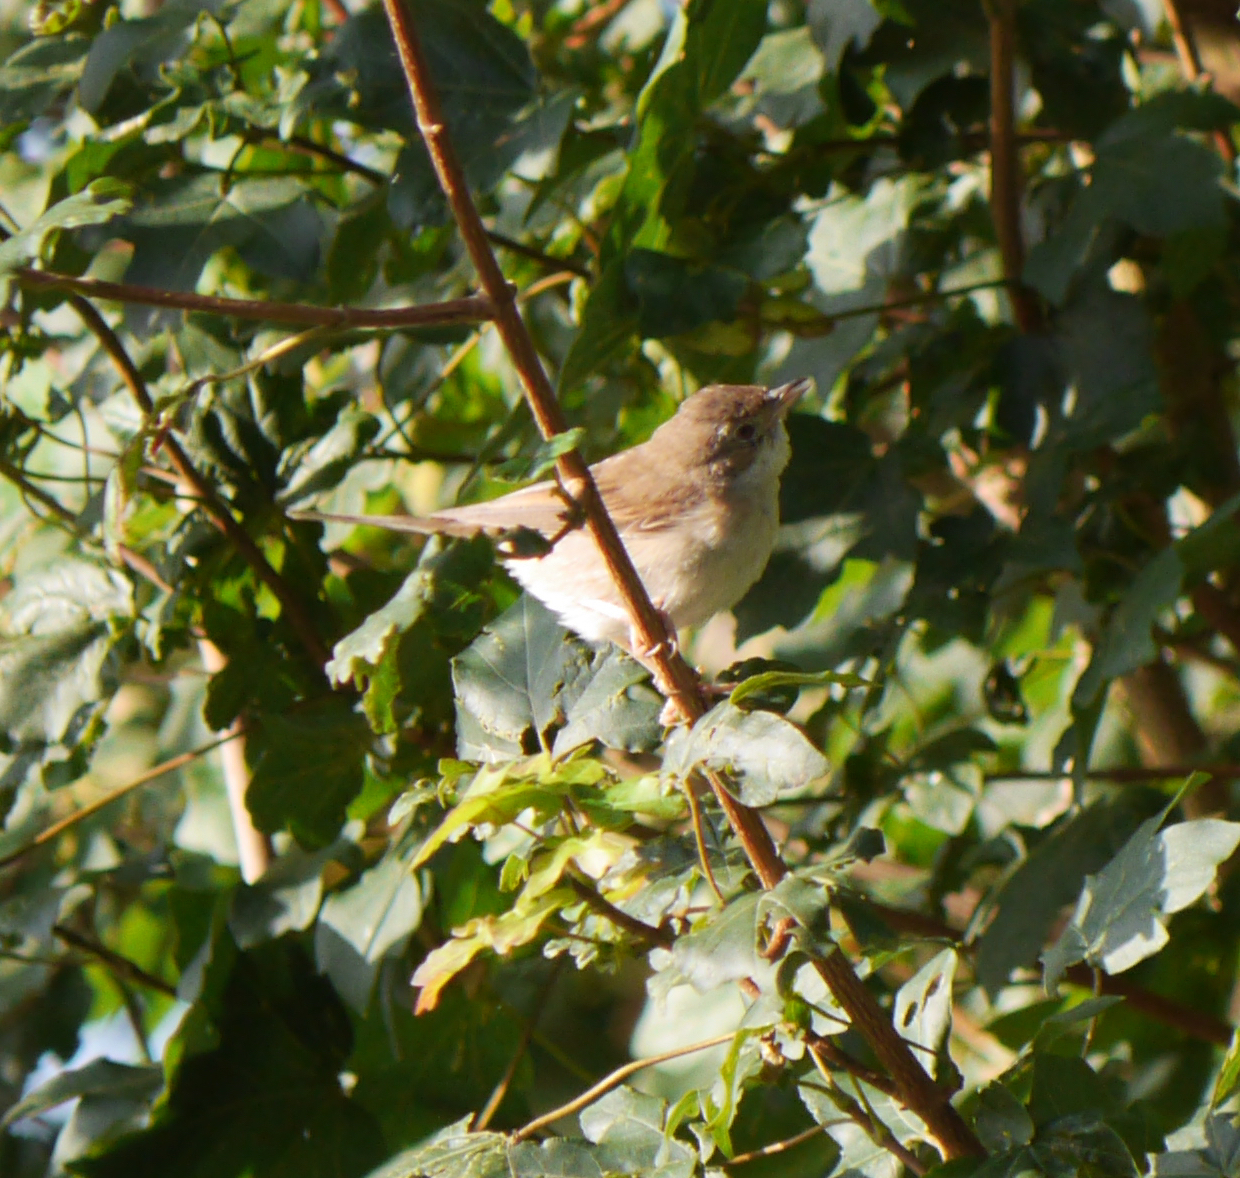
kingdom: Animalia
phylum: Chordata
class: Aves
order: Passeriformes
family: Sylviidae
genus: Sylvia
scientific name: Sylvia communis
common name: Common whitethroat
